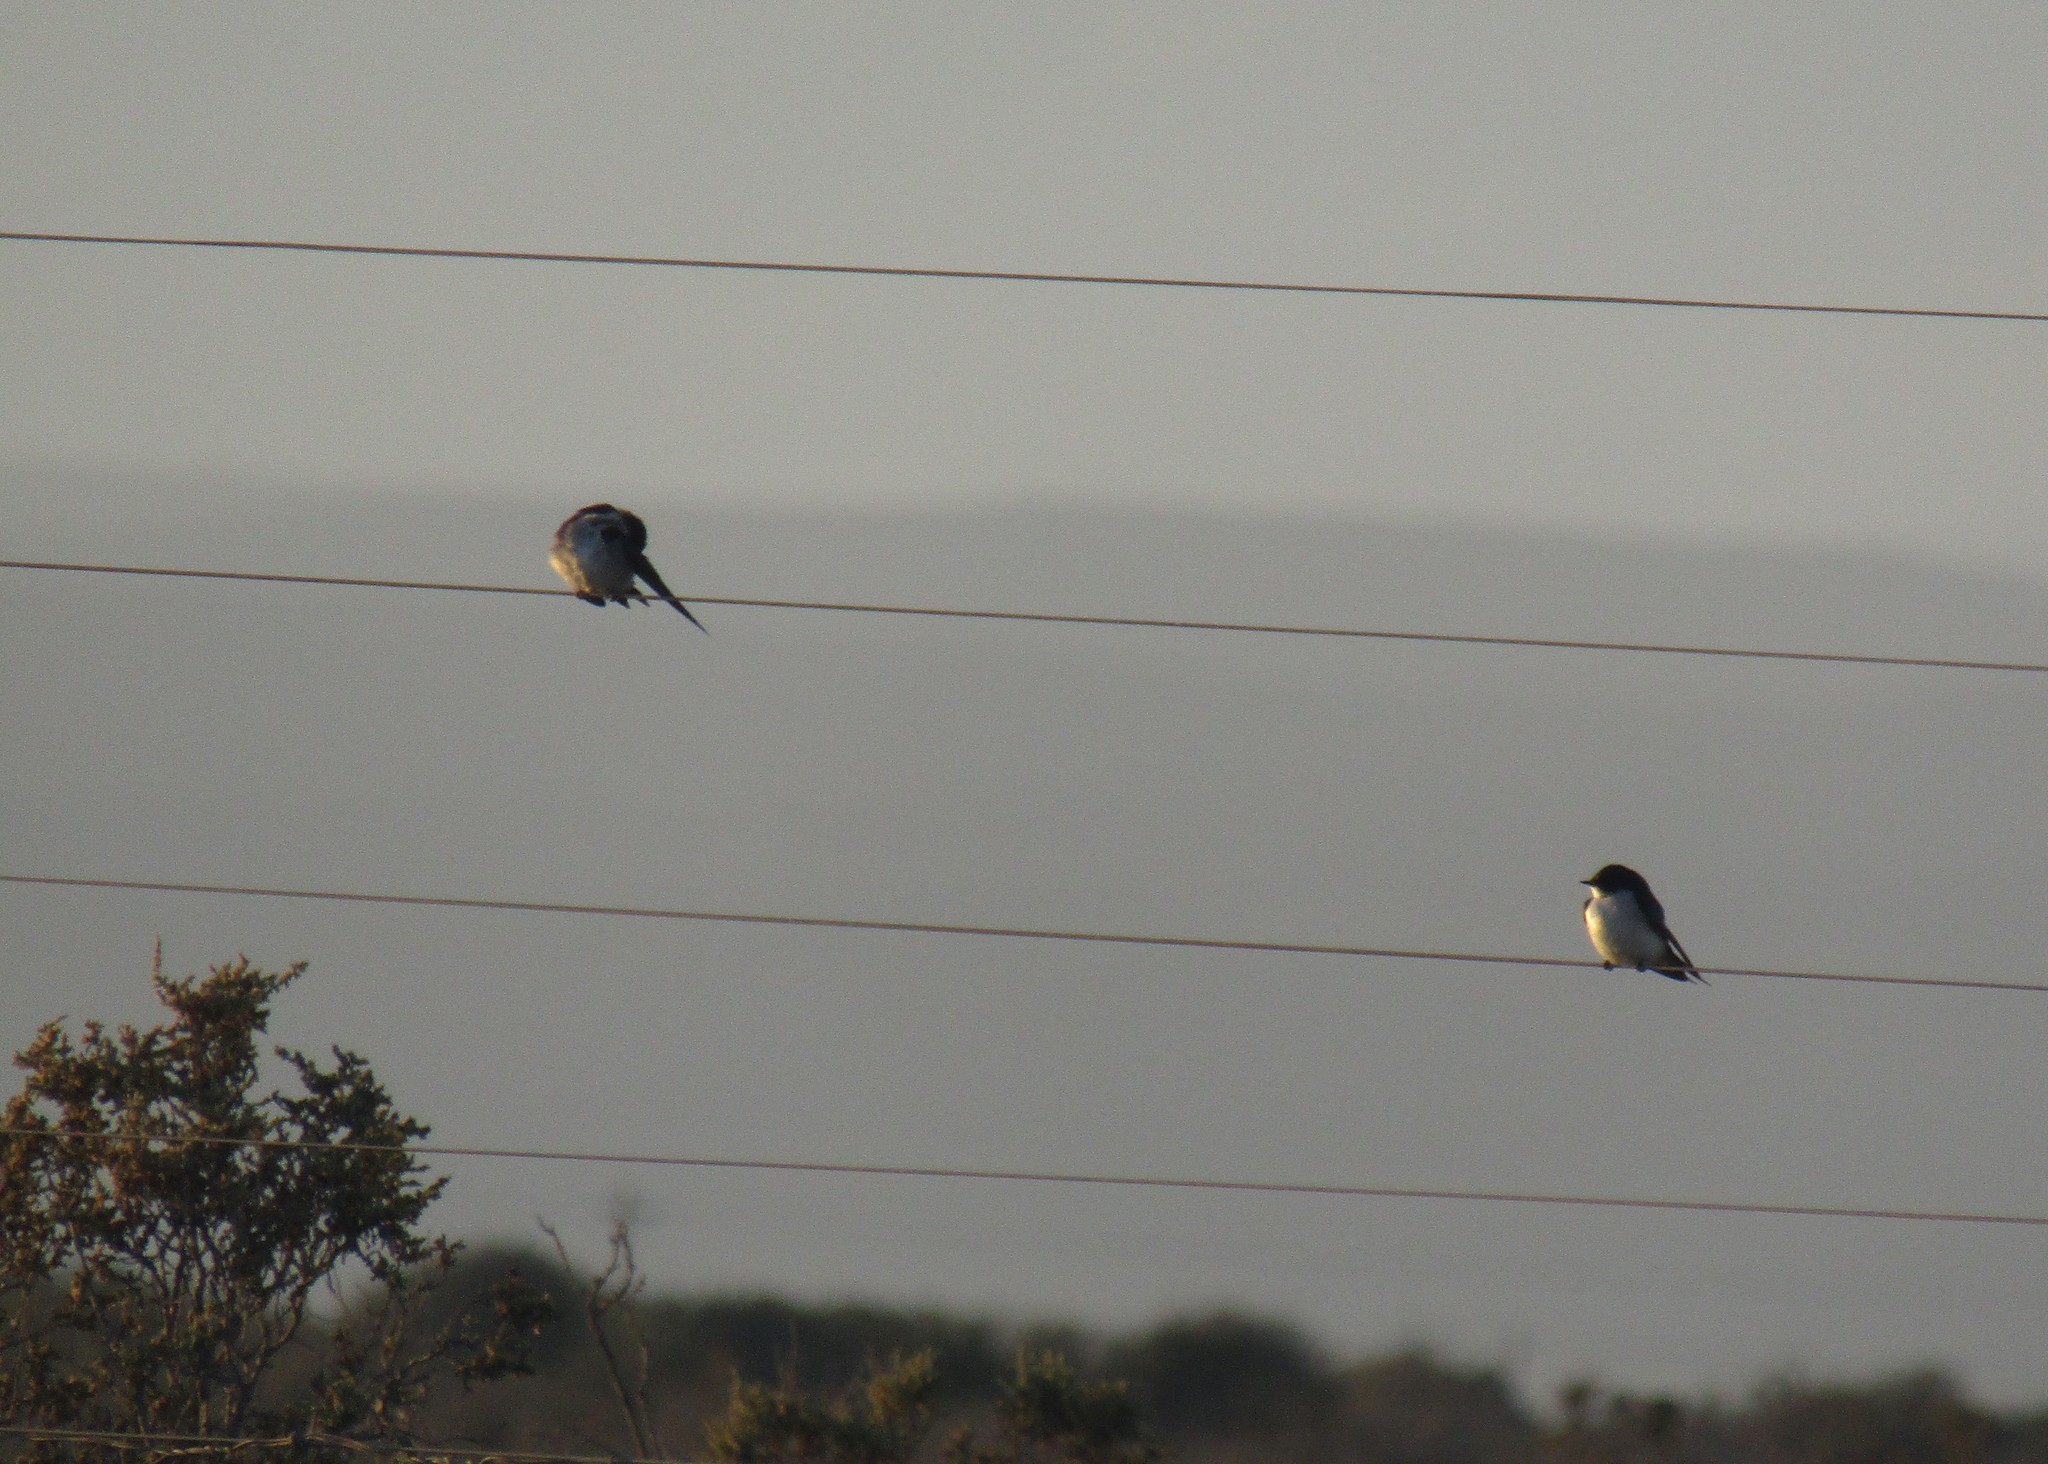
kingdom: Animalia
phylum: Chordata
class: Aves
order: Passeriformes
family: Hirundinidae
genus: Hirundo
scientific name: Hirundo dimidiata
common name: Pearl-breasted swallow
